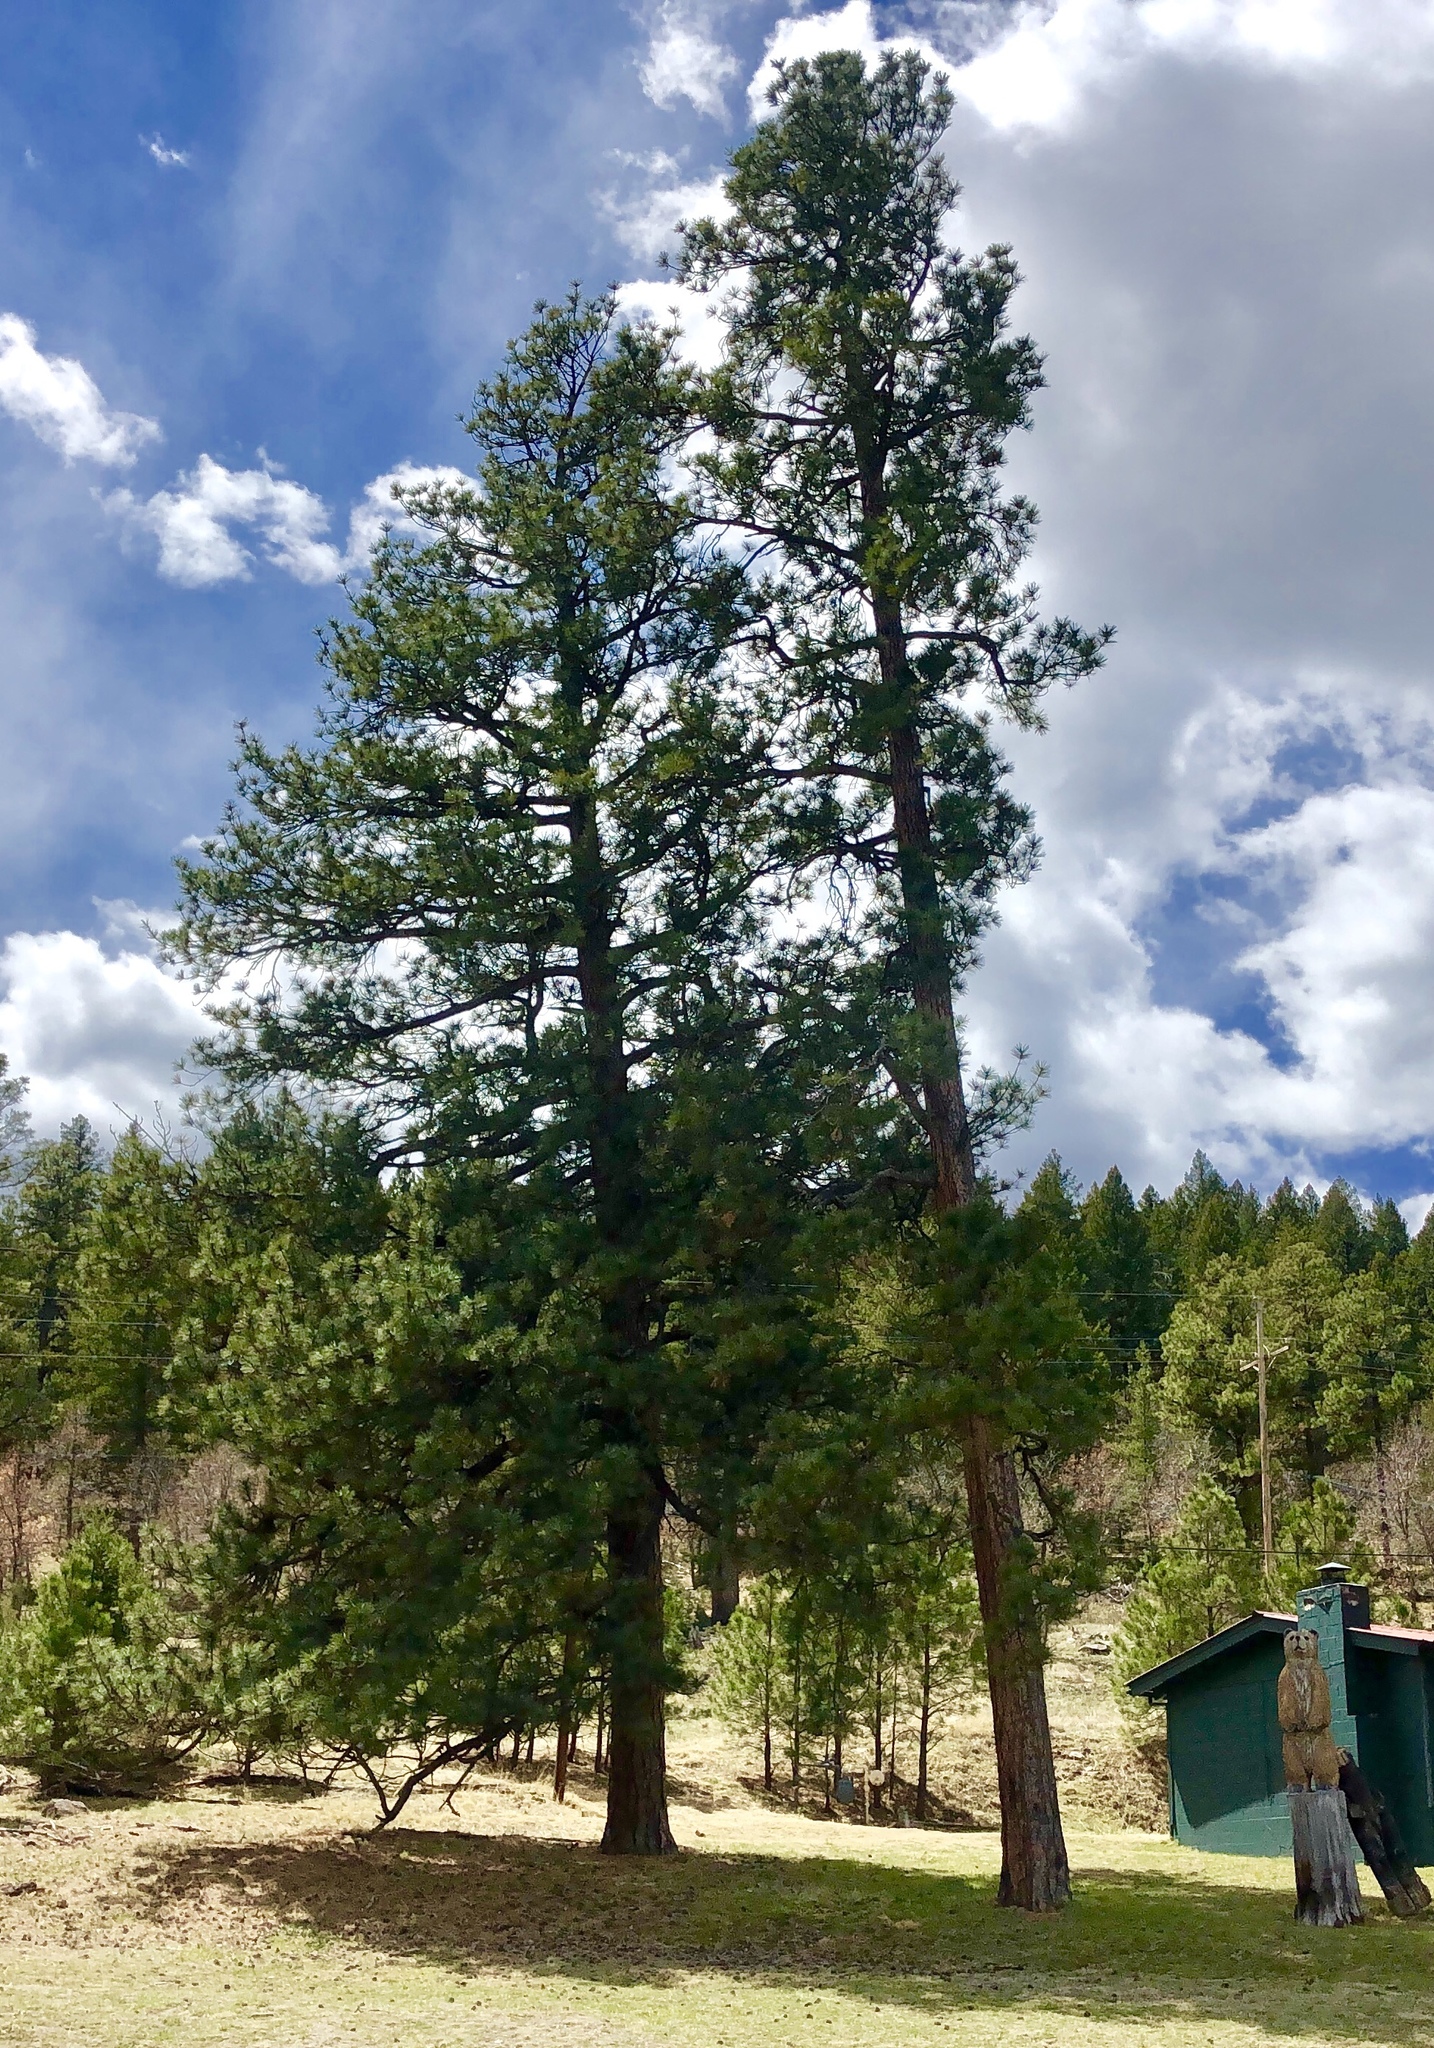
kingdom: Plantae
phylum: Tracheophyta
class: Pinopsida
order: Pinales
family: Pinaceae
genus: Pinus
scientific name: Pinus ponderosa
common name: Western yellow-pine
